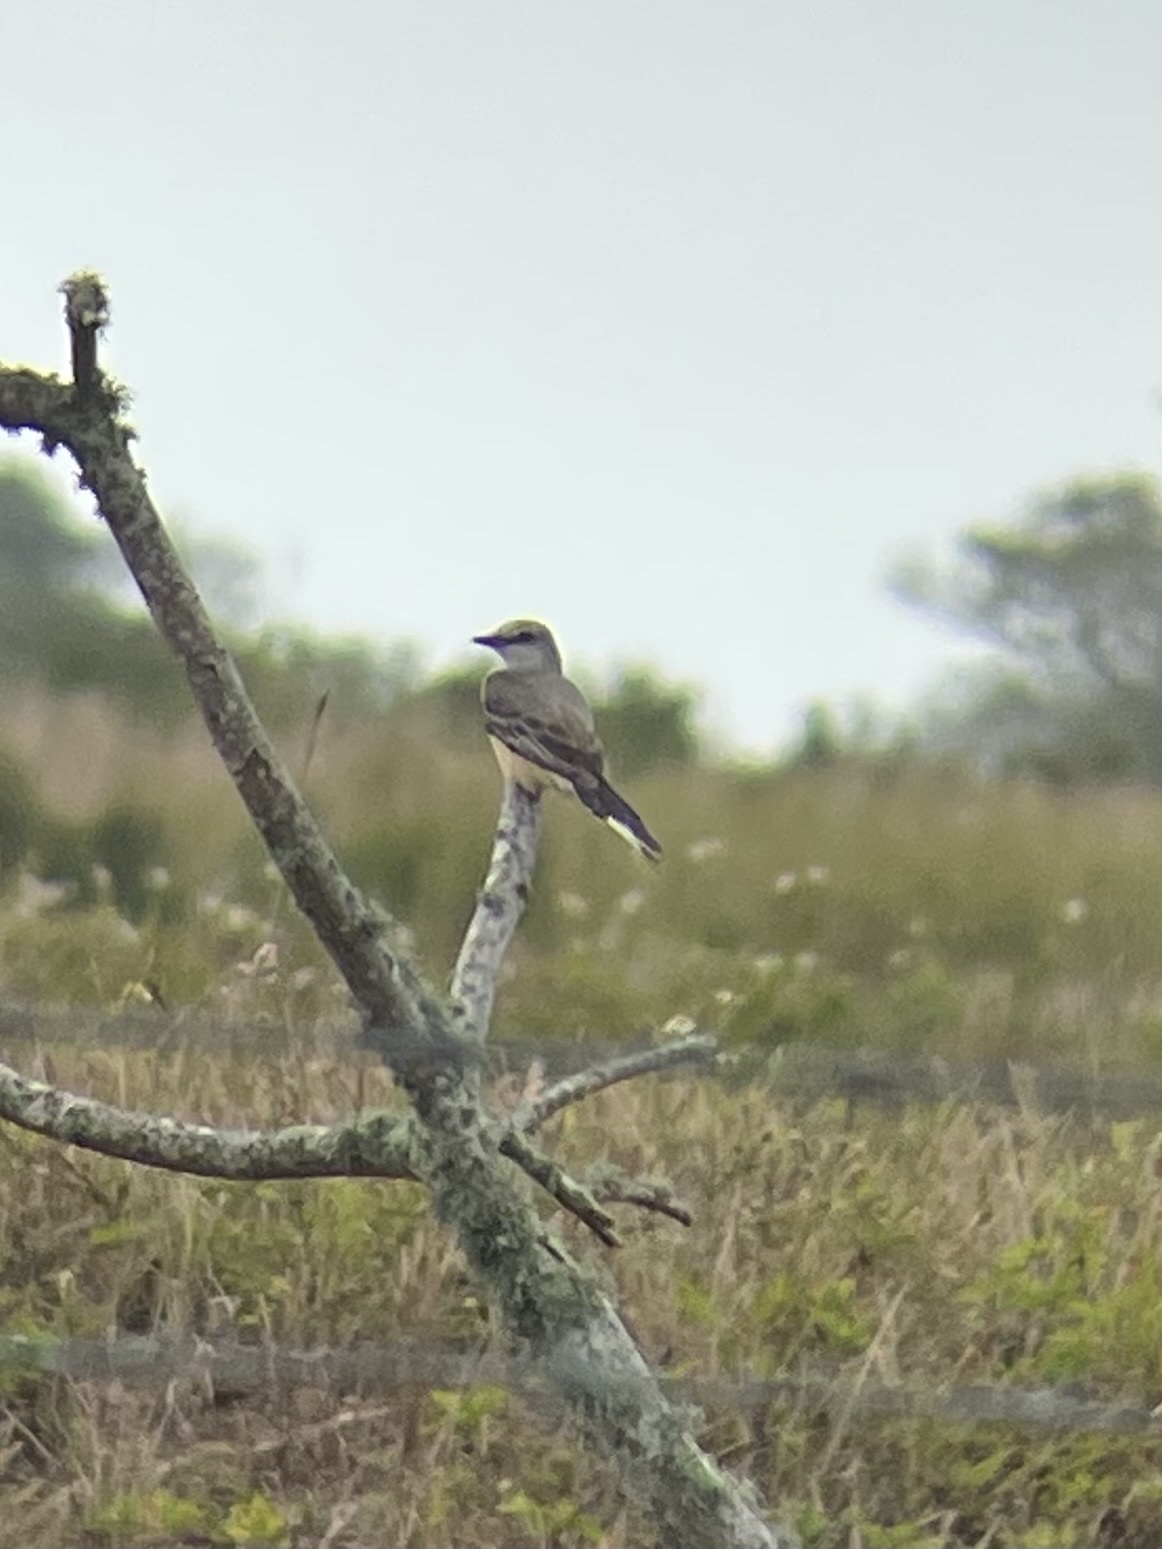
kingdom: Animalia
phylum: Chordata
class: Aves
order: Passeriformes
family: Tyrannidae
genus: Tyrannus
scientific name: Tyrannus verticalis
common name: Western kingbird
